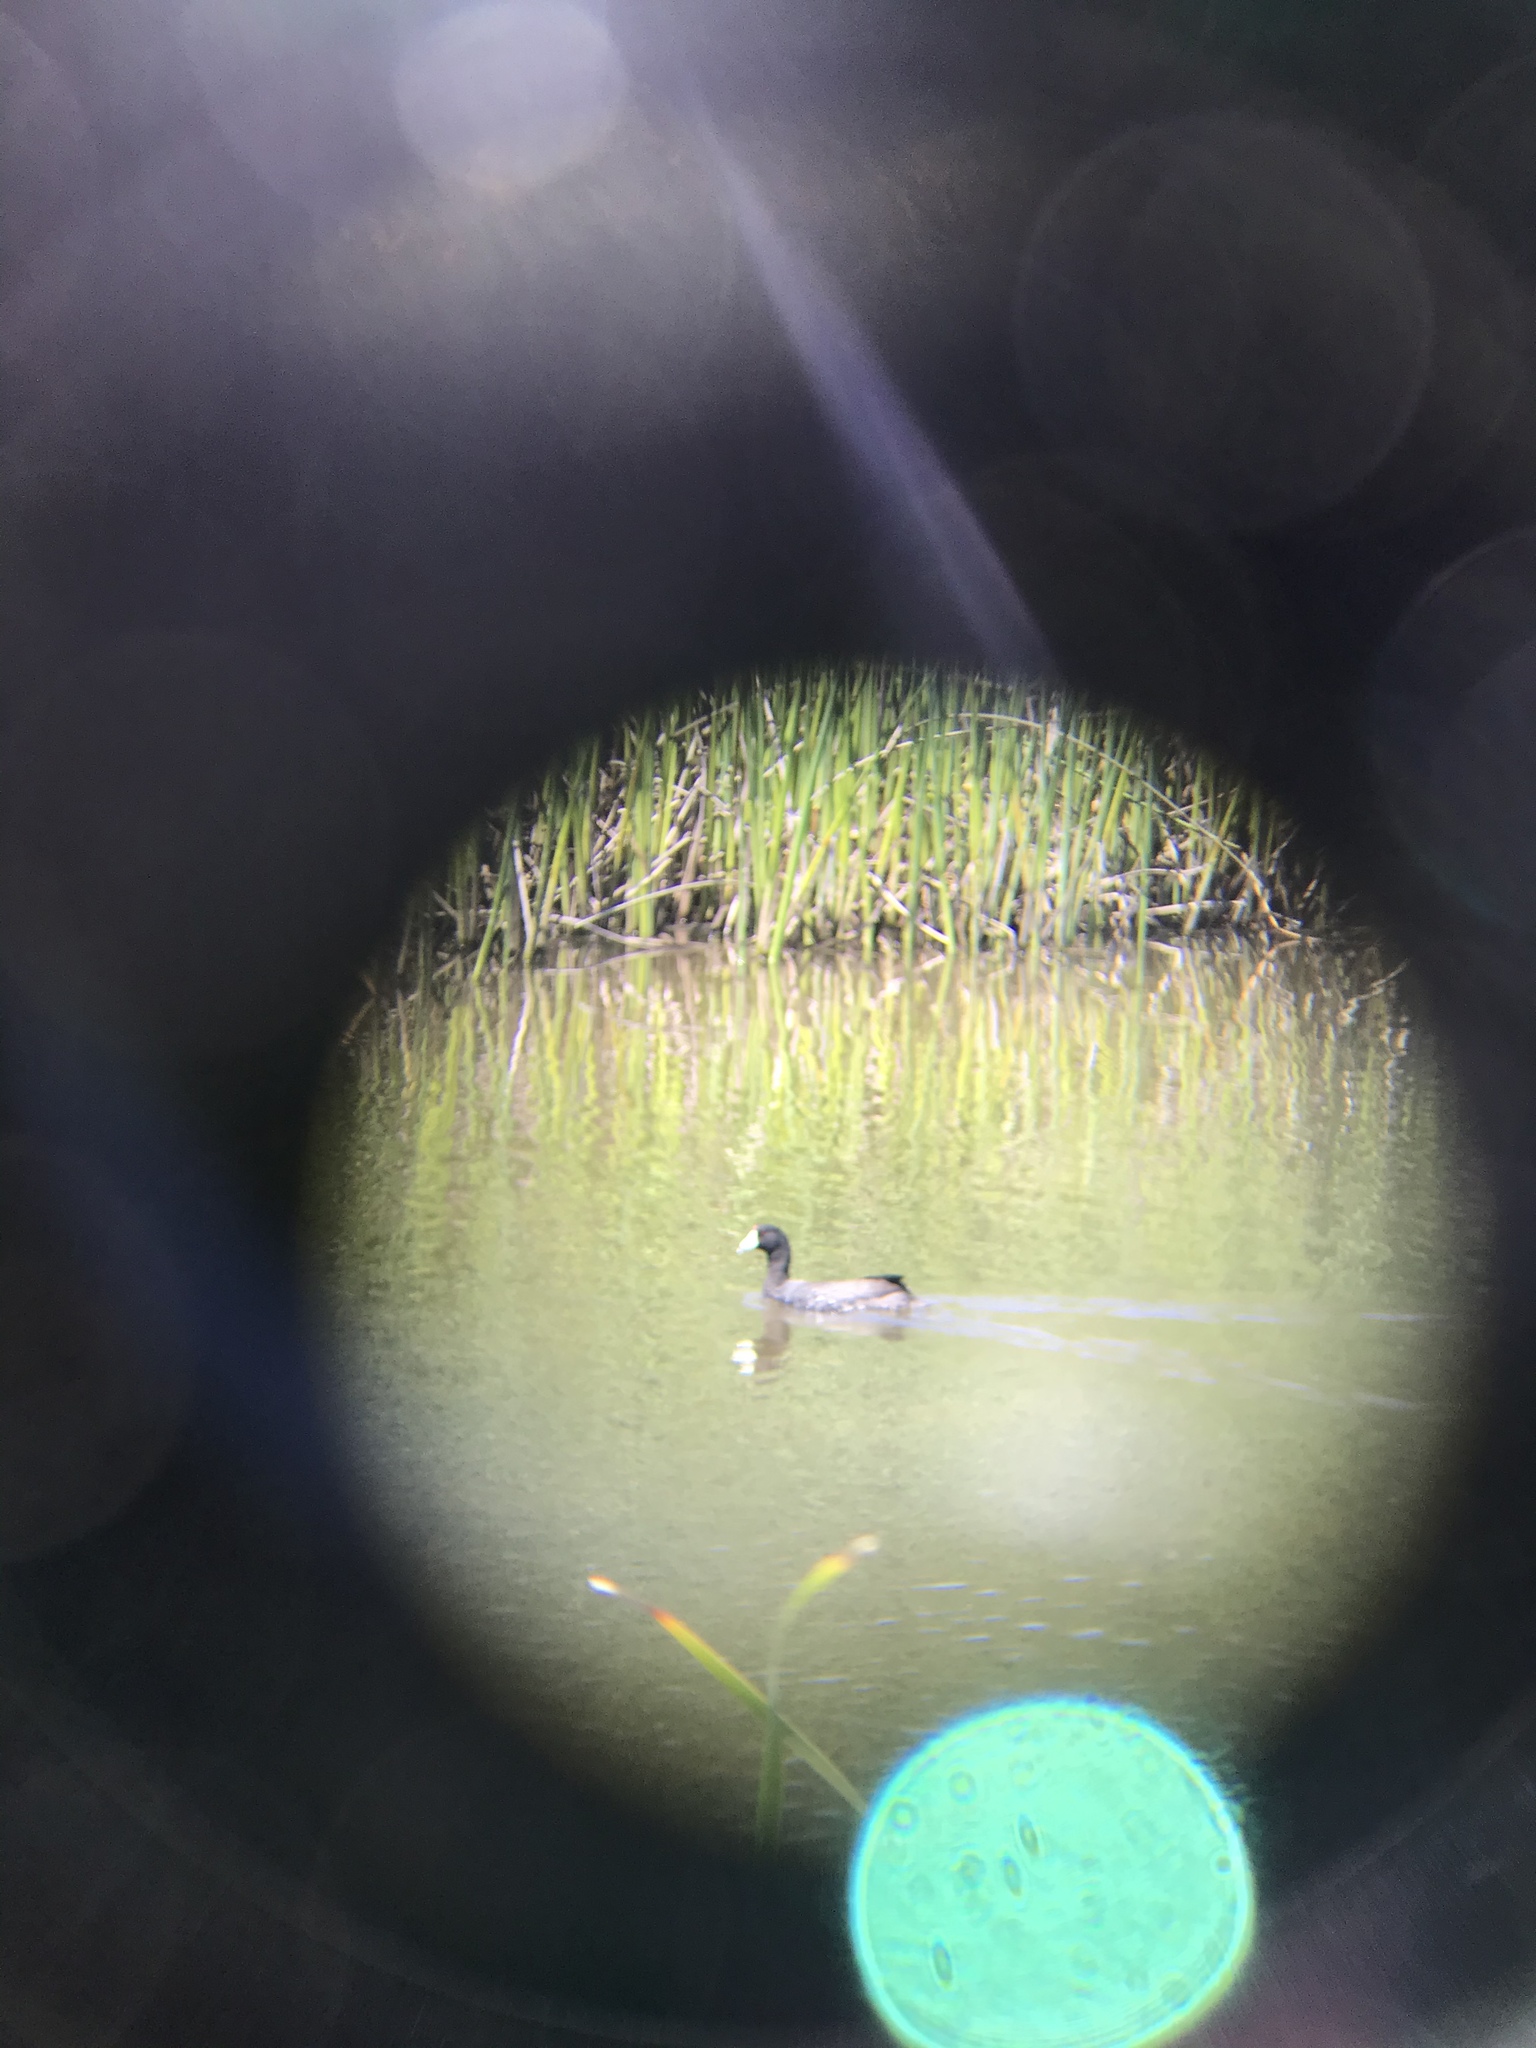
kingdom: Animalia
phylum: Chordata
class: Aves
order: Gruiformes
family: Rallidae
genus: Fulica
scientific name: Fulica americana
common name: American coot
